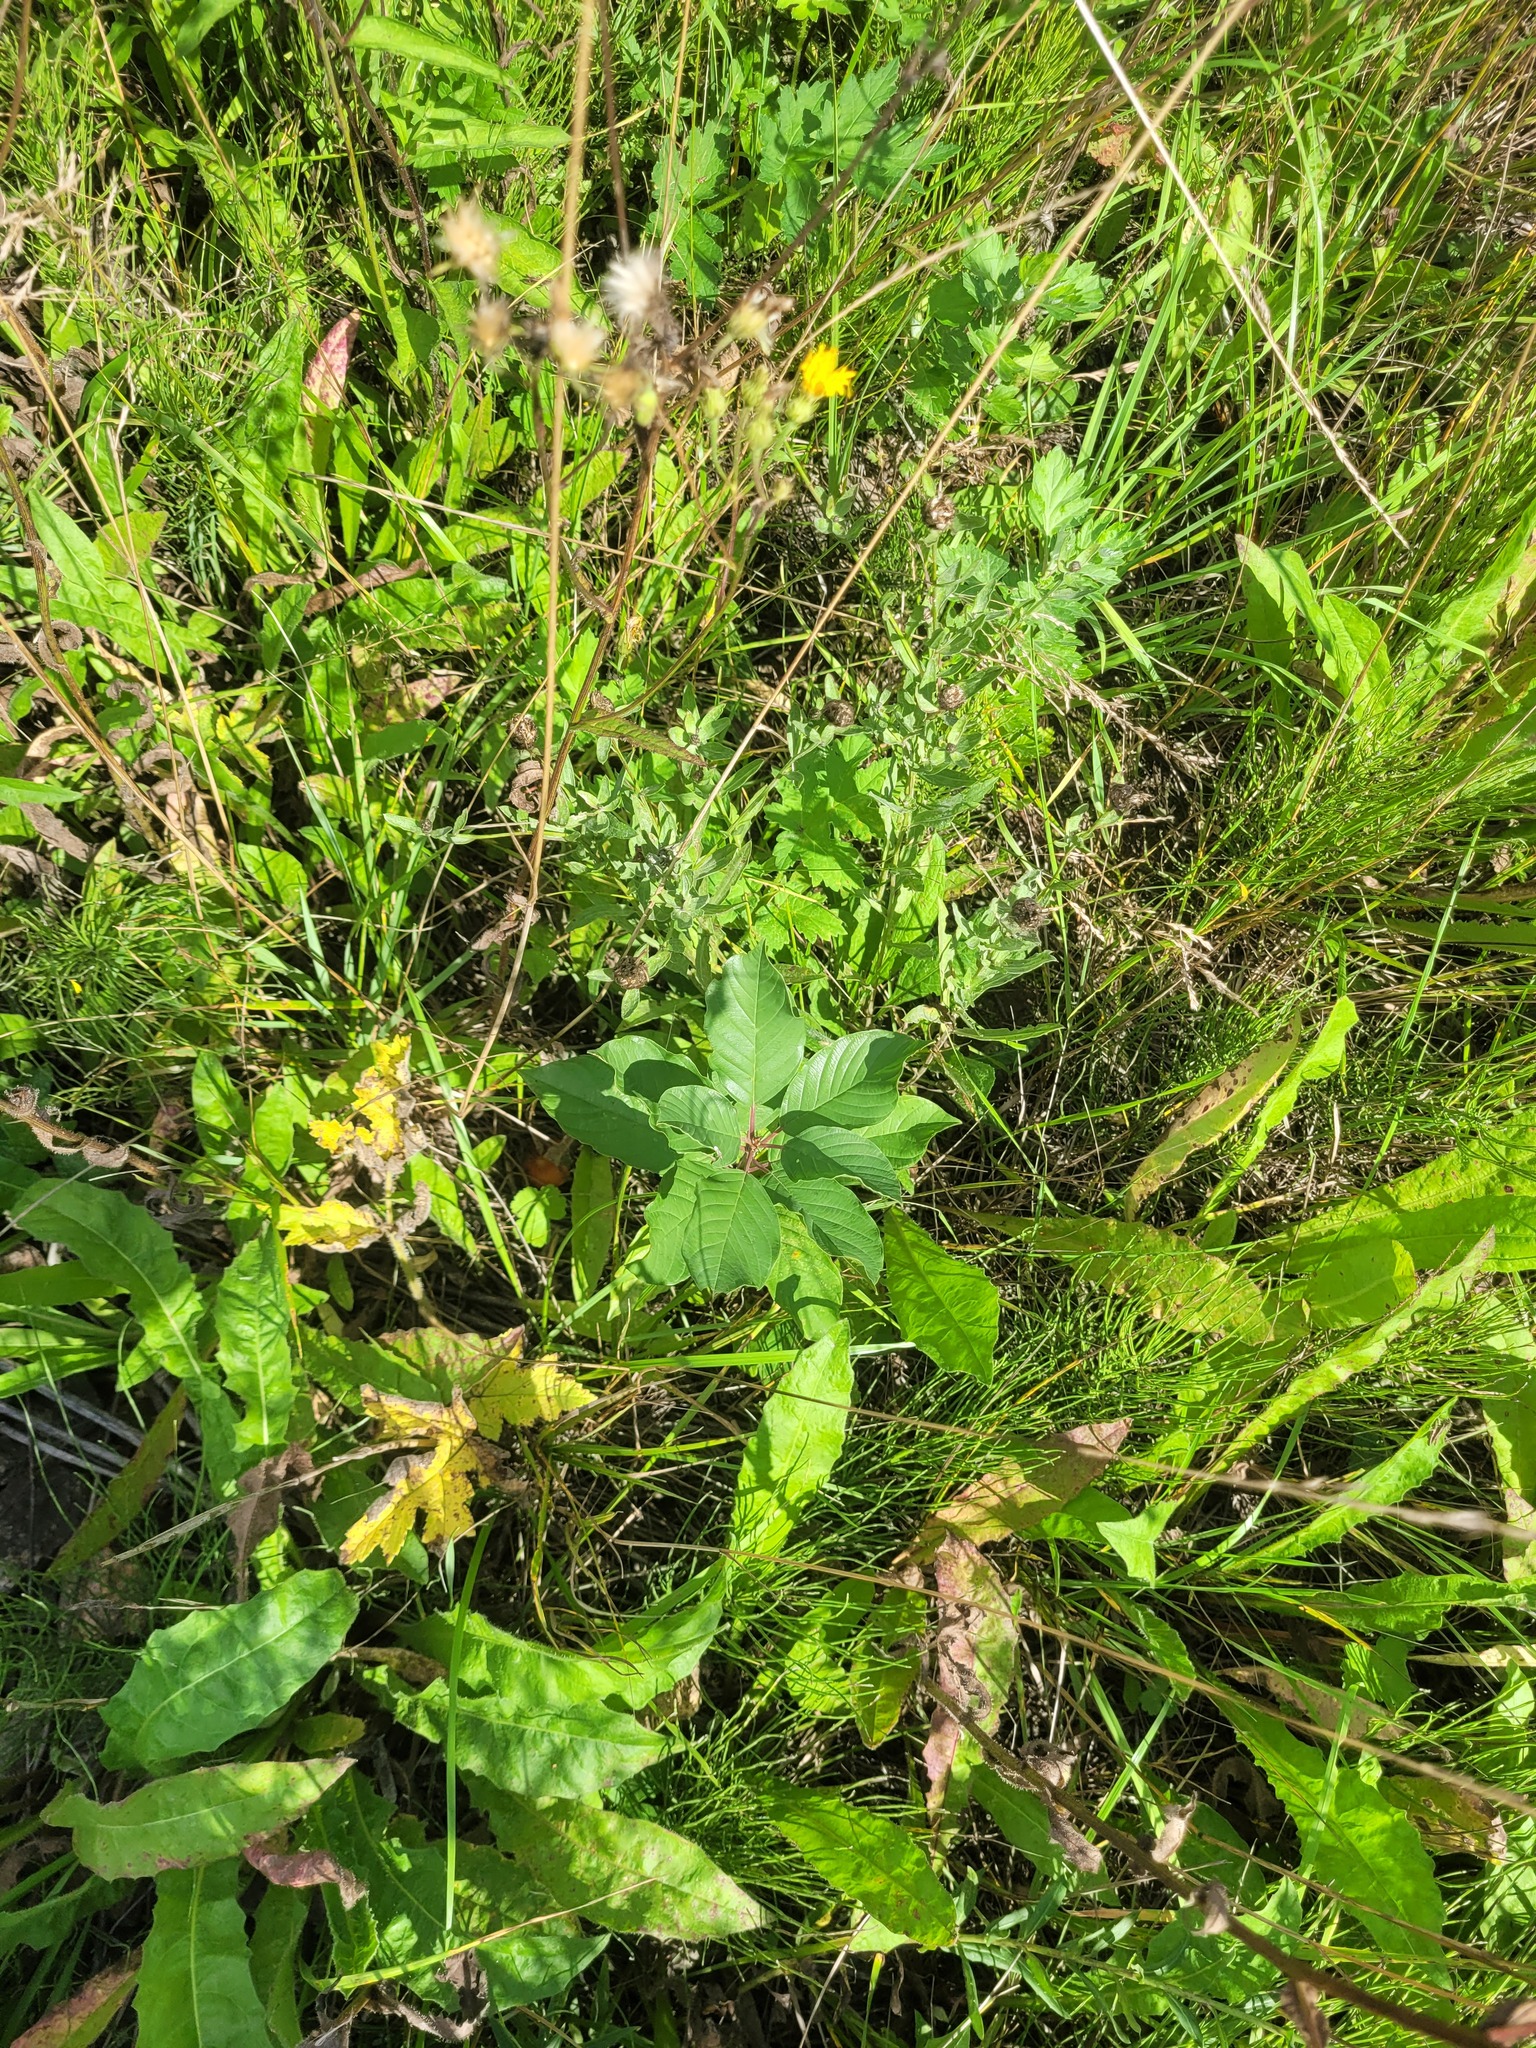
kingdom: Plantae
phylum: Tracheophyta
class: Magnoliopsida
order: Rosales
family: Rhamnaceae
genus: Frangula
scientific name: Frangula alnus
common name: Alder buckthorn
